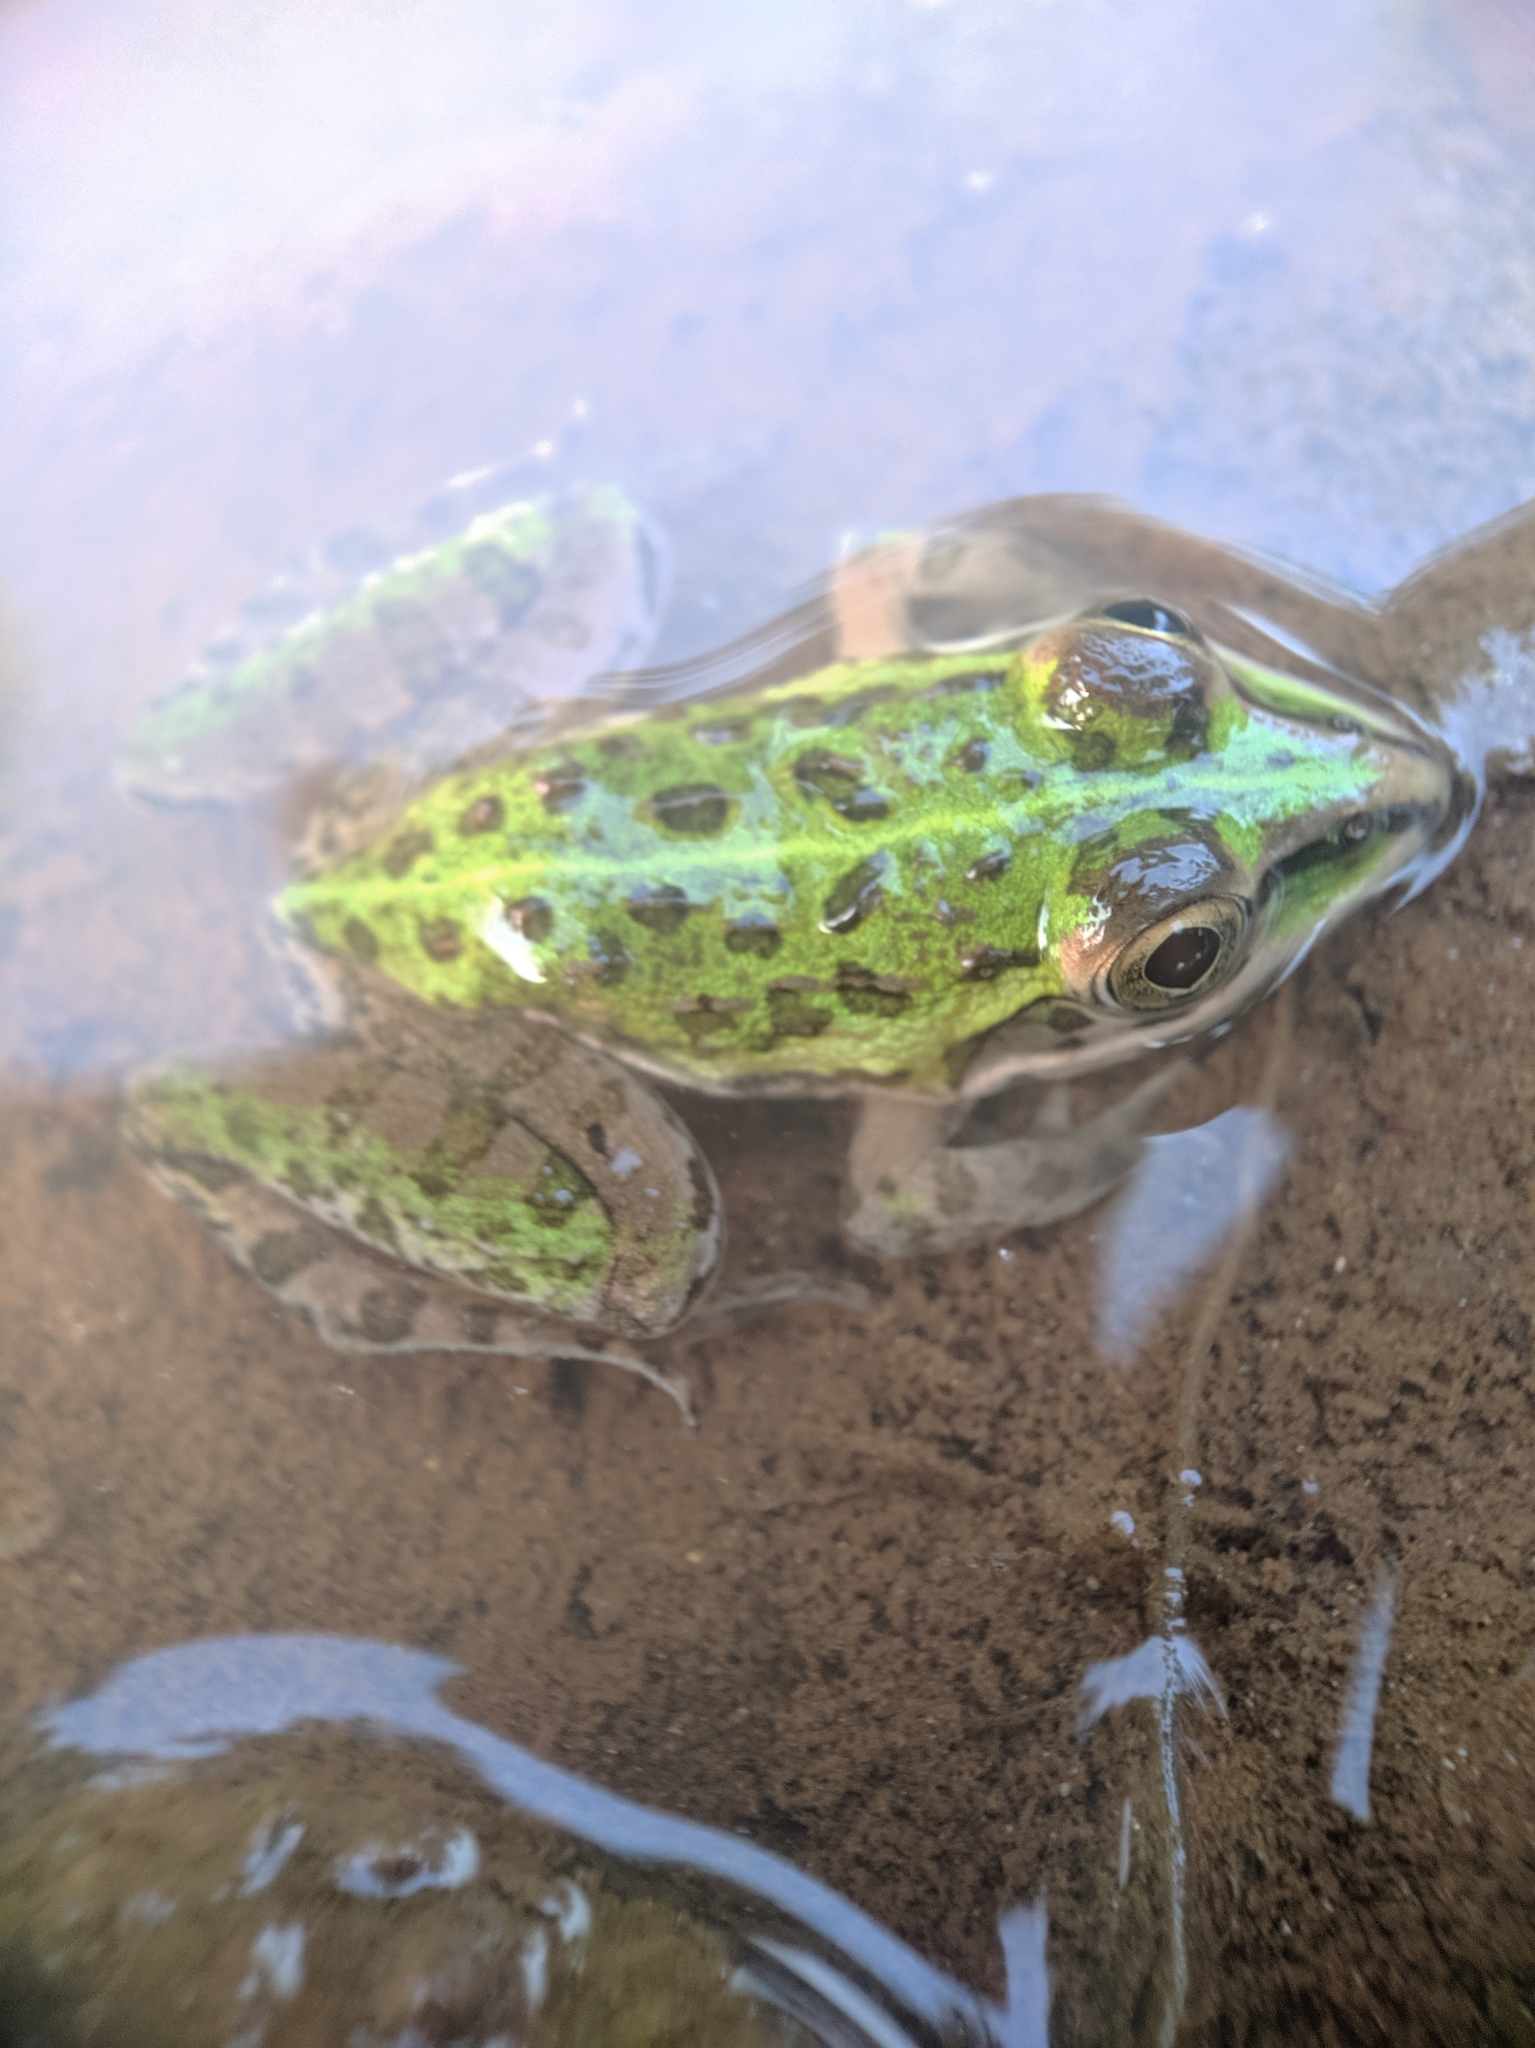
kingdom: Animalia
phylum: Chordata
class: Amphibia
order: Anura
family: Dicroglossidae
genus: Hoplobatrachus
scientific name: Hoplobatrachus tigerinus
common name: Indian bullfrog
